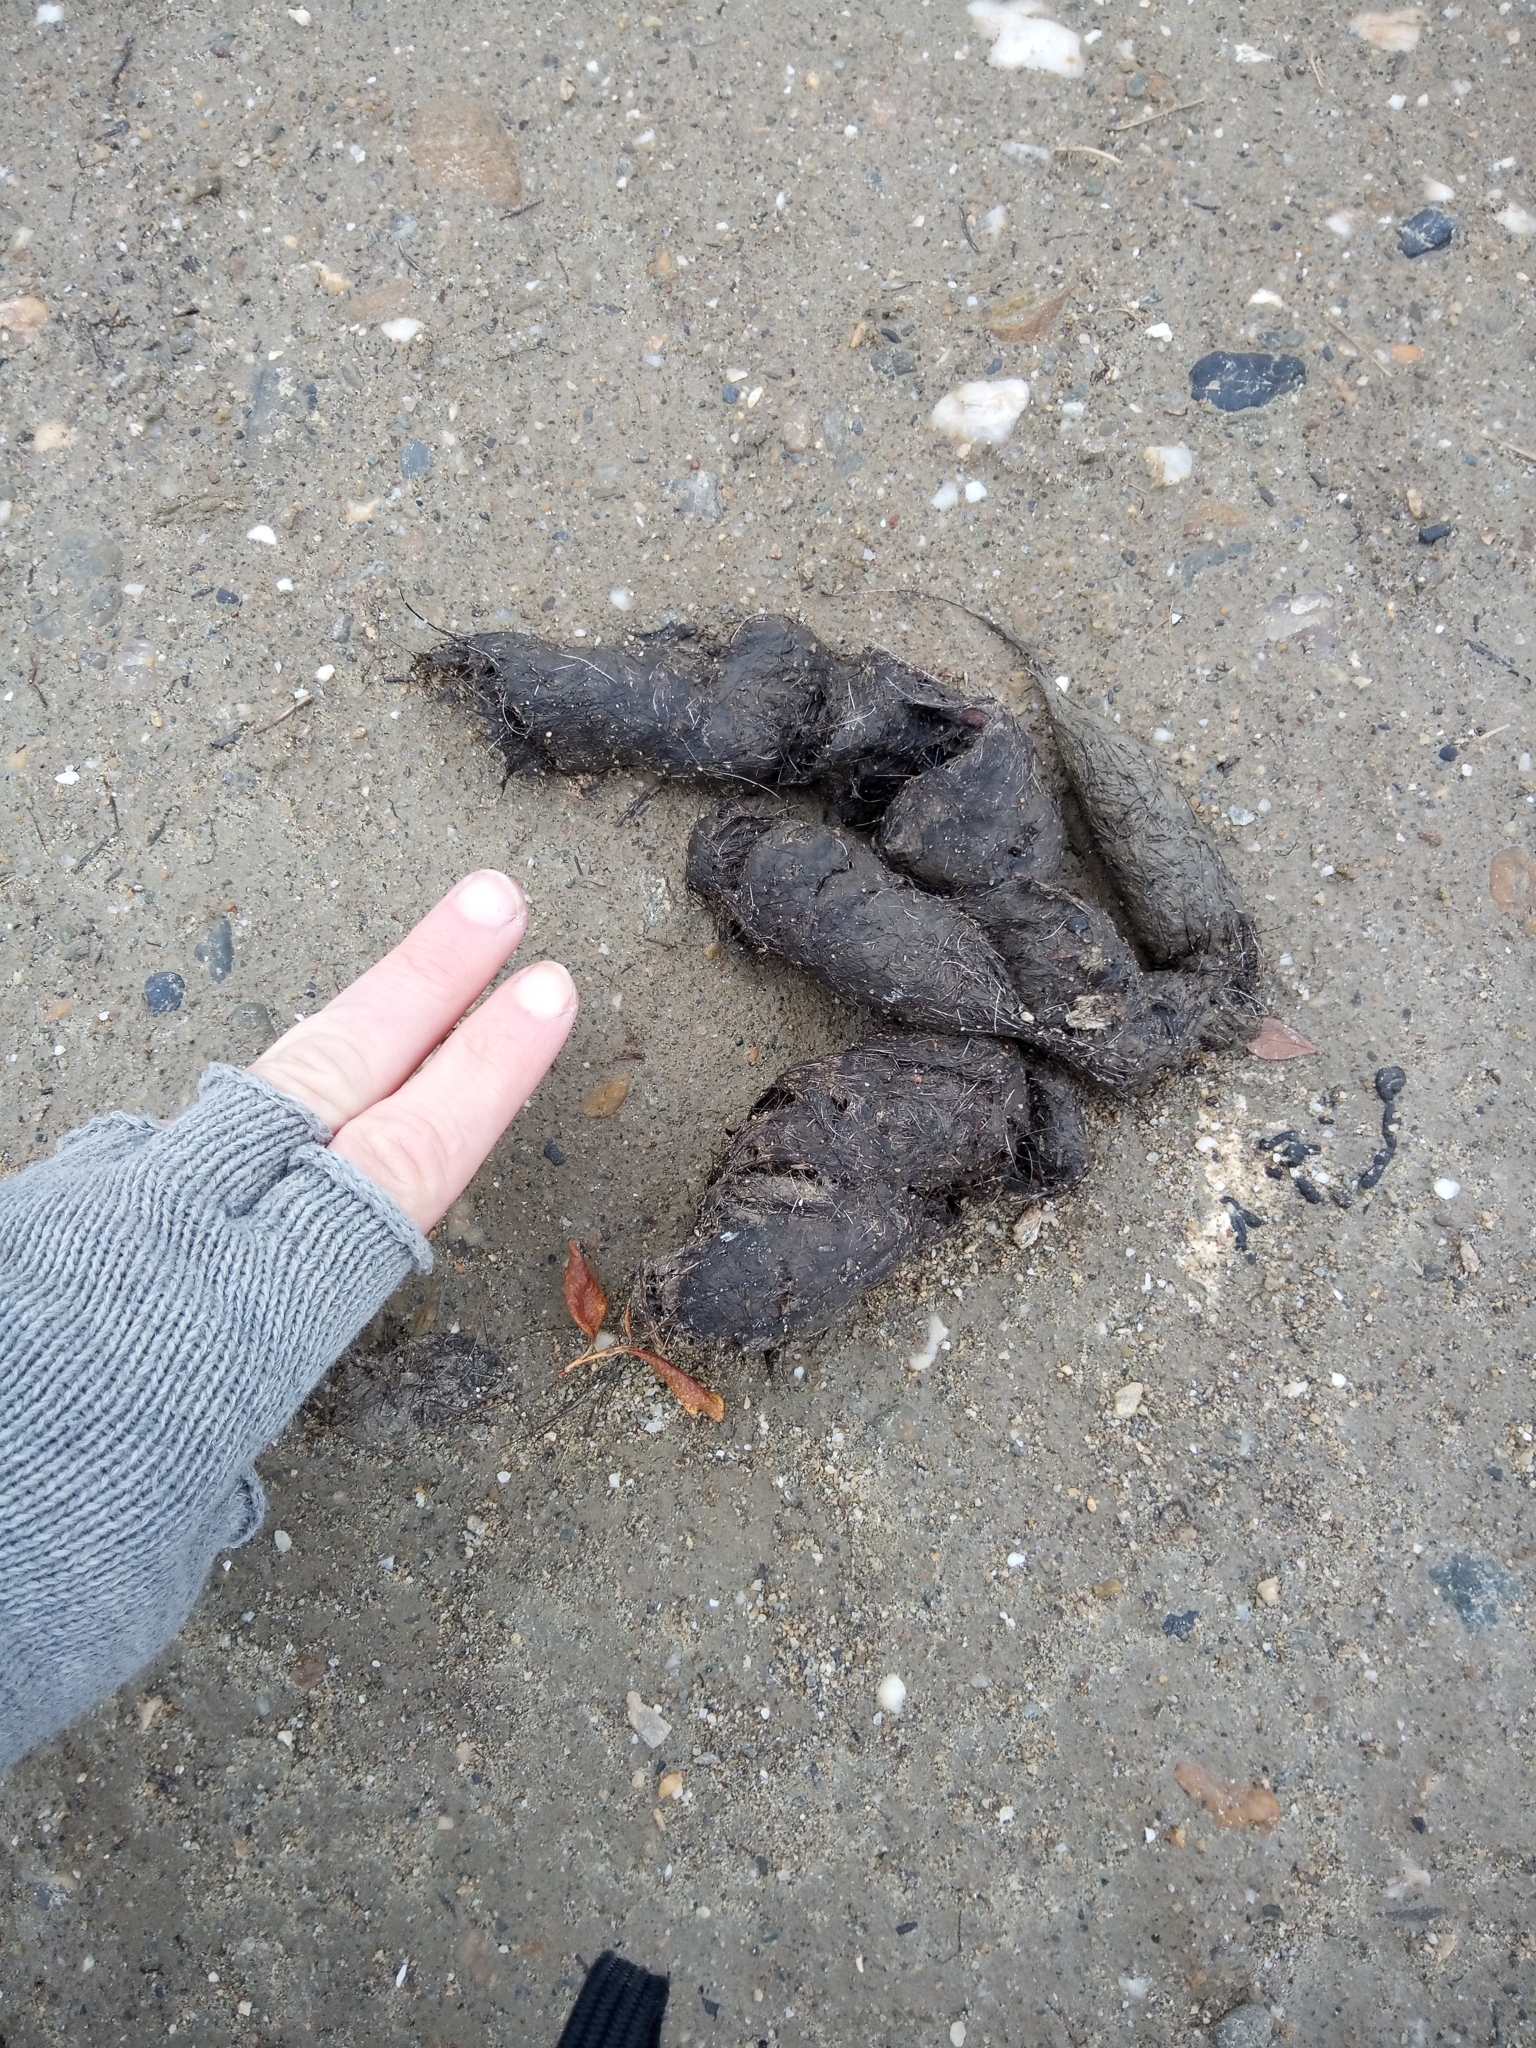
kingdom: Animalia
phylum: Chordata
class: Mammalia
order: Carnivora
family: Canidae
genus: Canis
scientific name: Canis lupus
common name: Gray wolf
